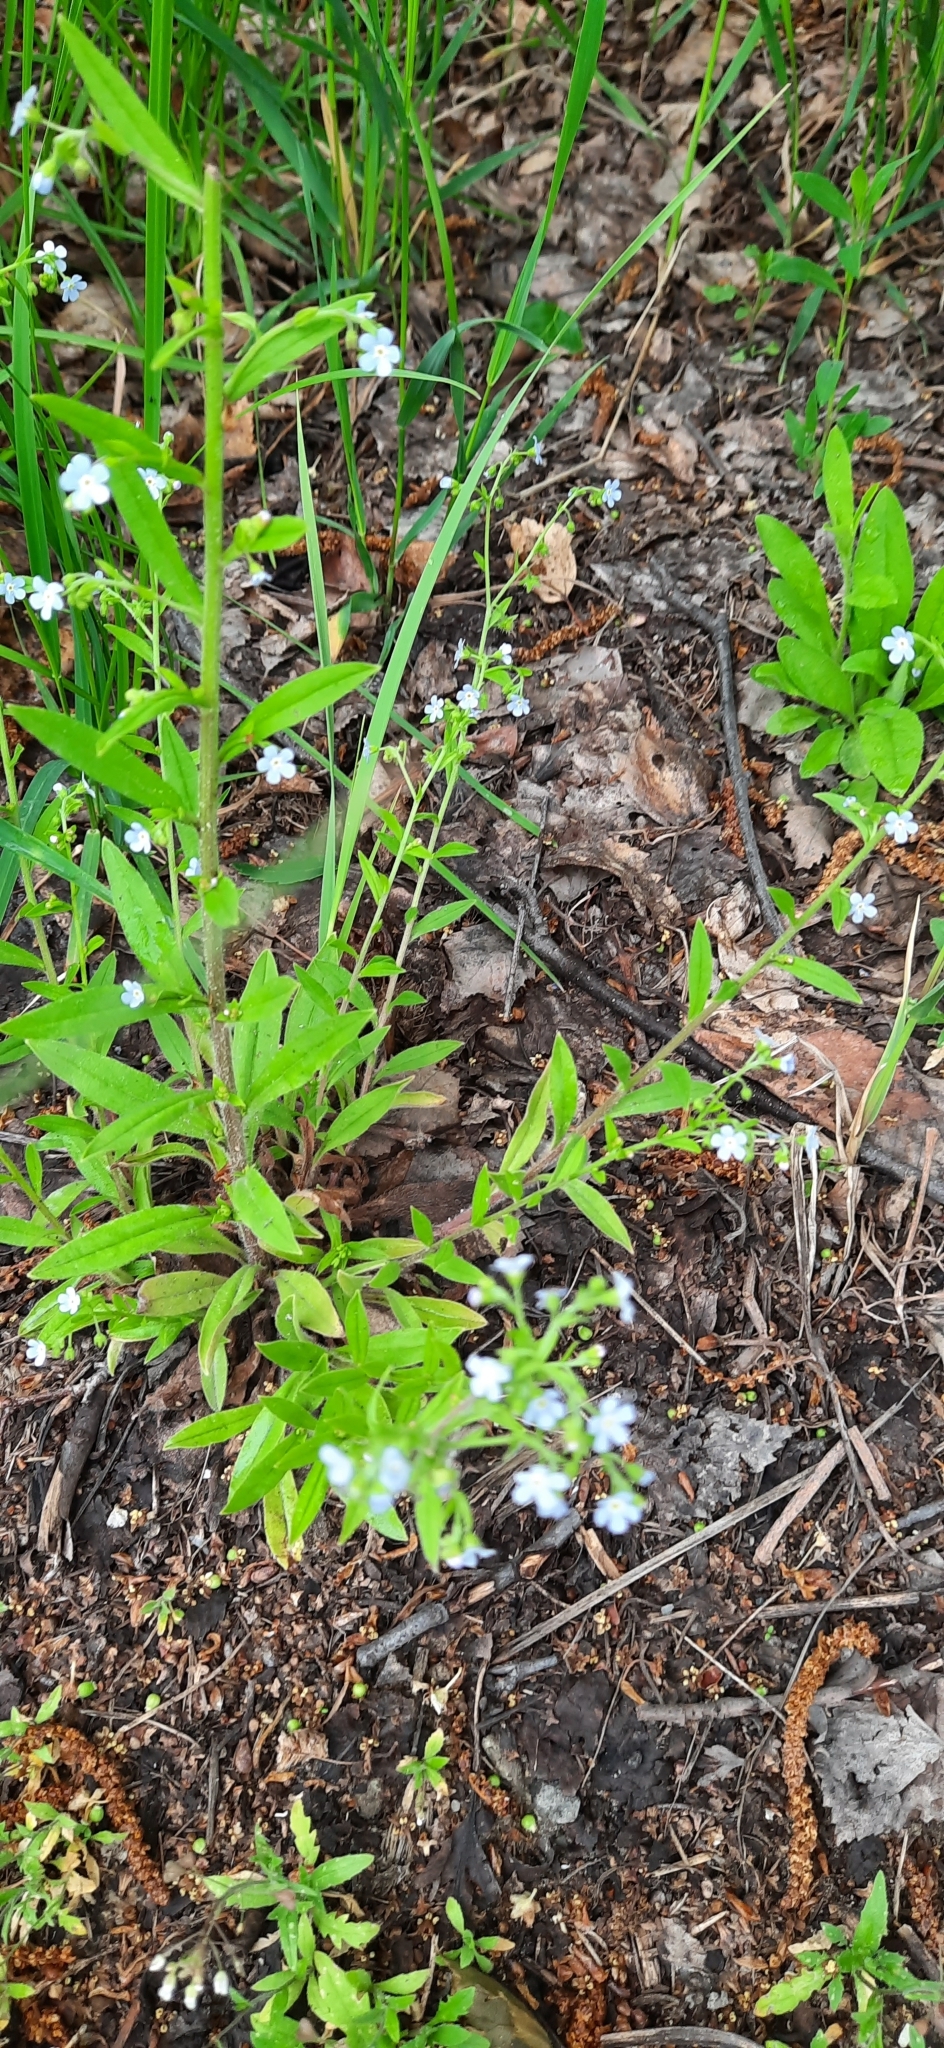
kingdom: Plantae
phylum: Tracheophyta
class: Magnoliopsida
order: Boraginales
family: Boraginaceae
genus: Hackelia
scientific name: Hackelia deflexa
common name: Nodding stickseed
